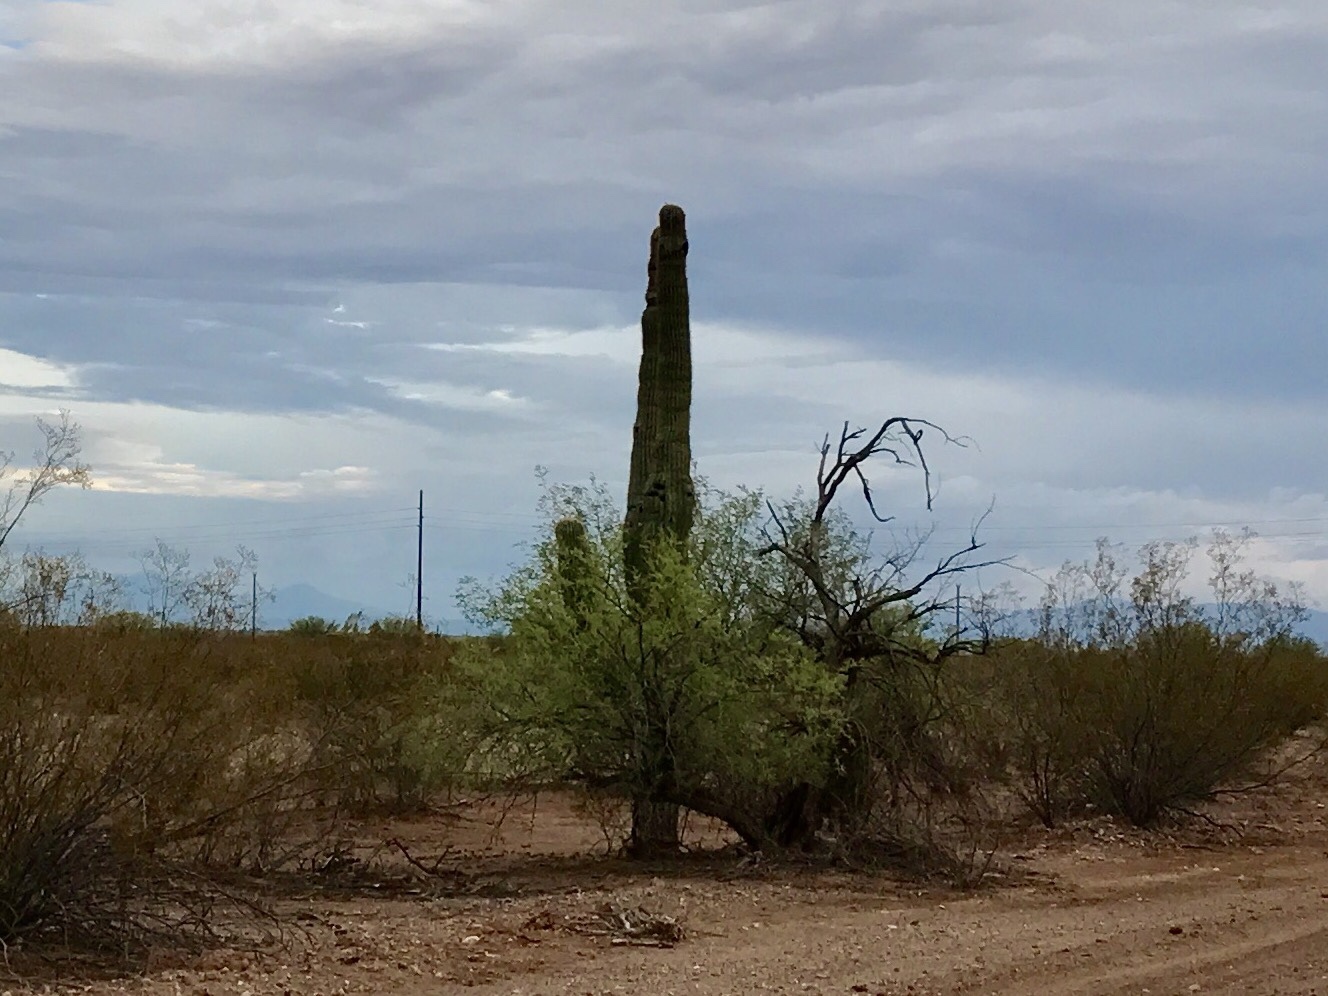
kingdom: Plantae
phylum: Tracheophyta
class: Magnoliopsida
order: Caryophyllales
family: Cactaceae
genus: Carnegiea
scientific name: Carnegiea gigantea
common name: Saguaro
